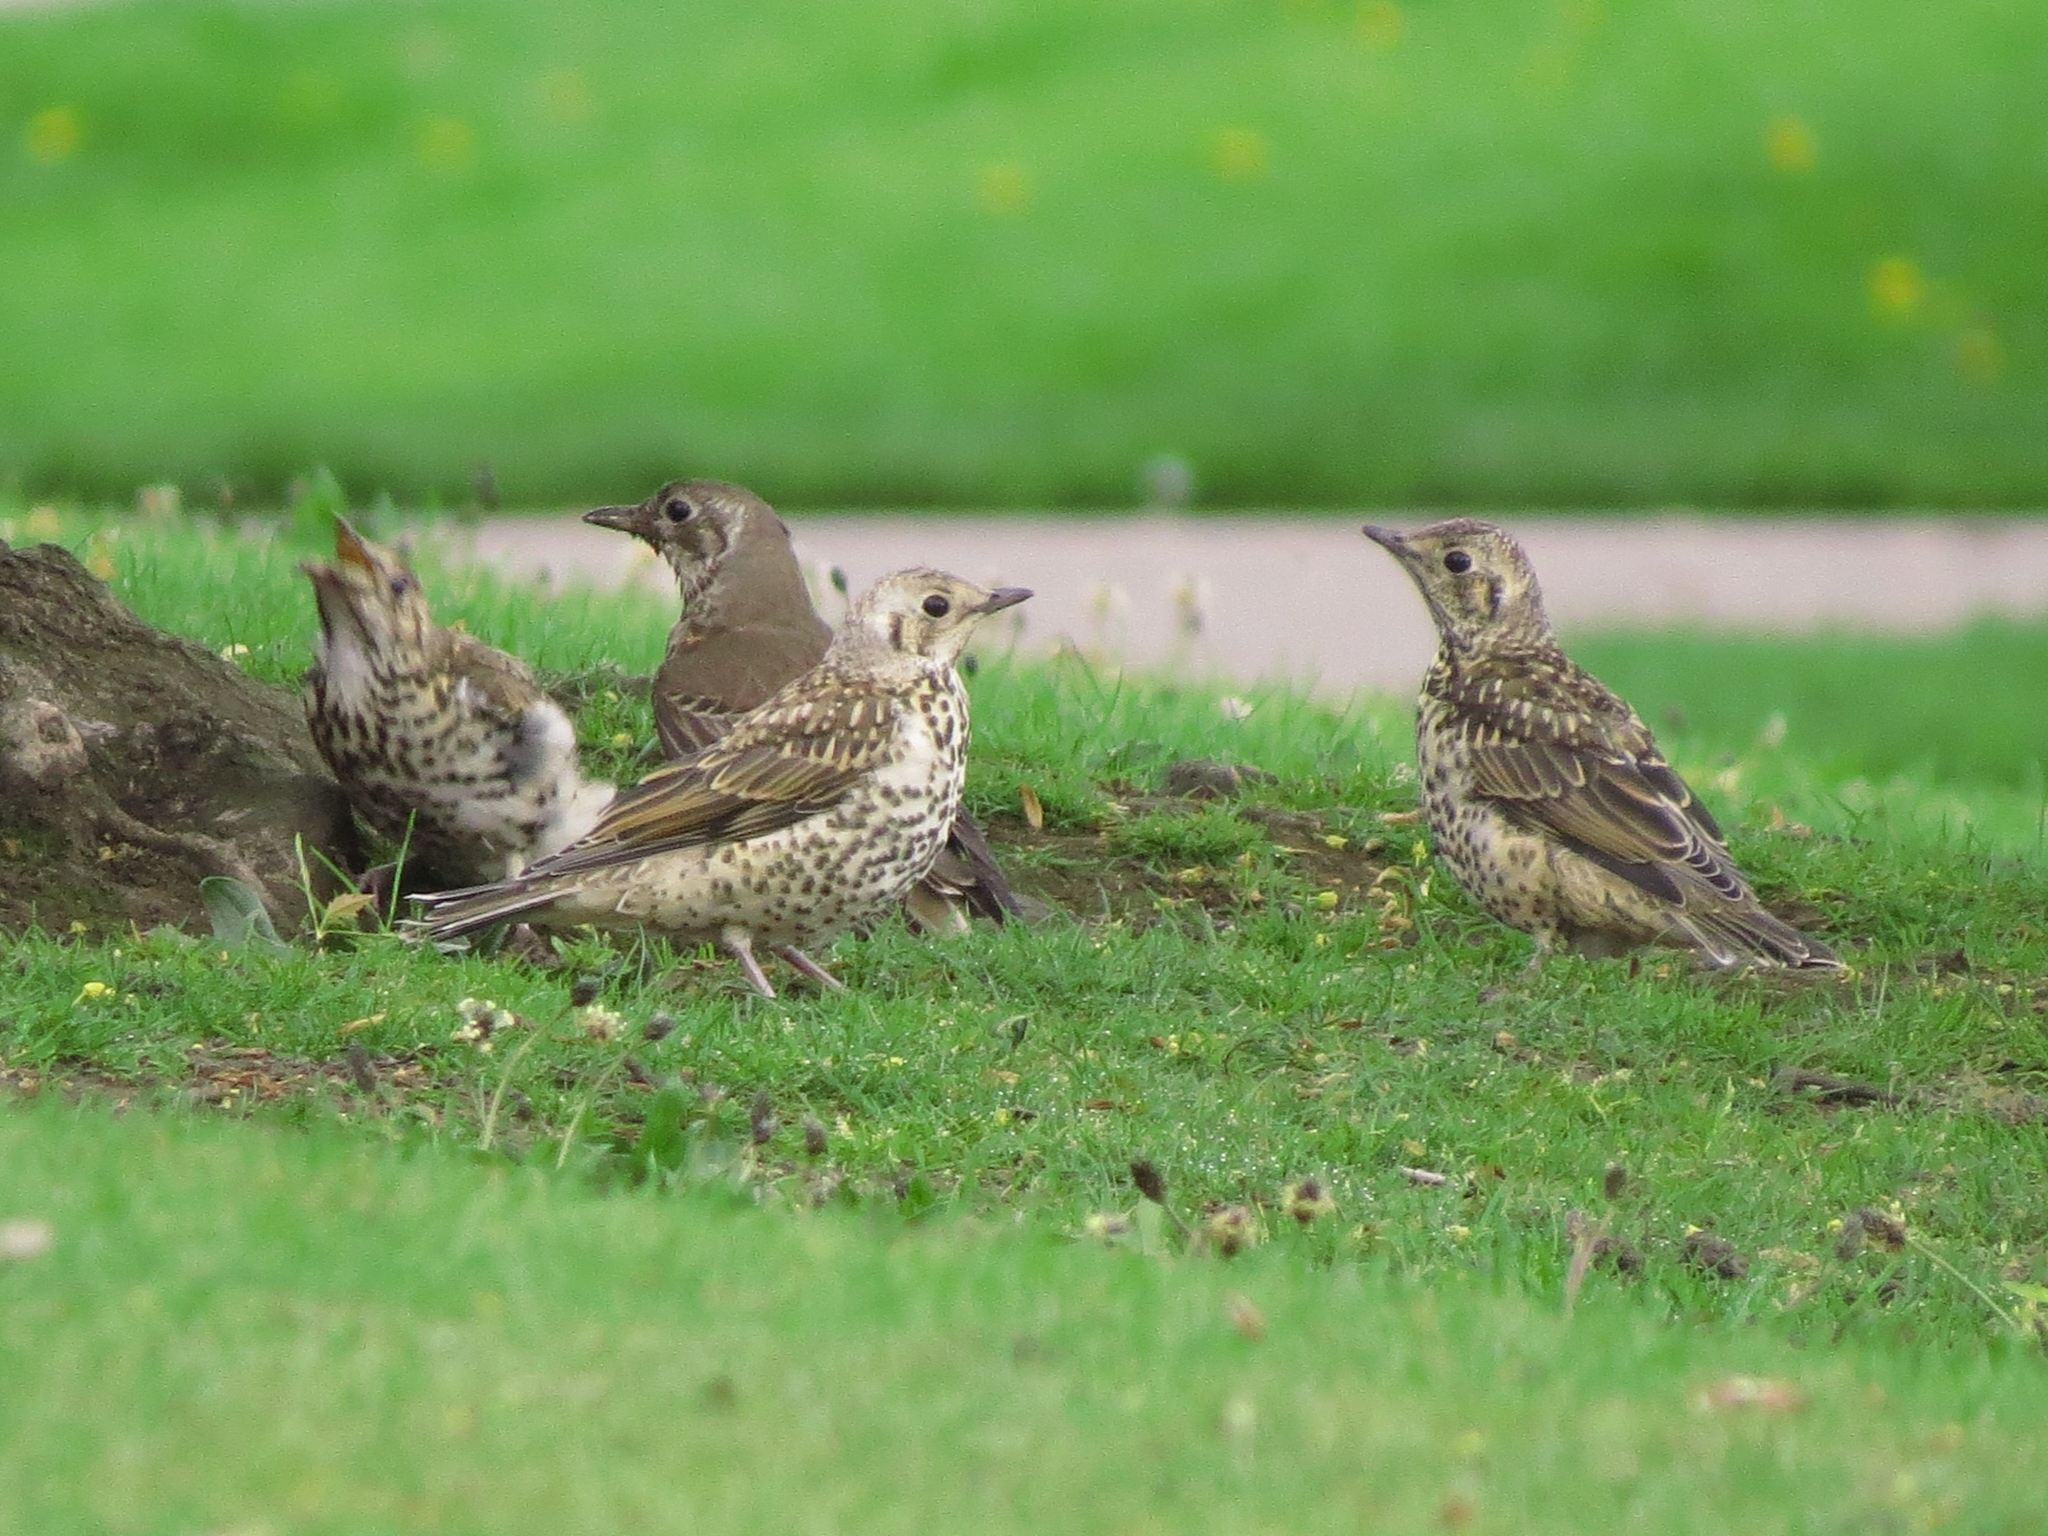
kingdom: Animalia
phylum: Chordata
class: Aves
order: Passeriformes
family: Turdidae
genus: Turdus
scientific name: Turdus viscivorus
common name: Mistle thrush
